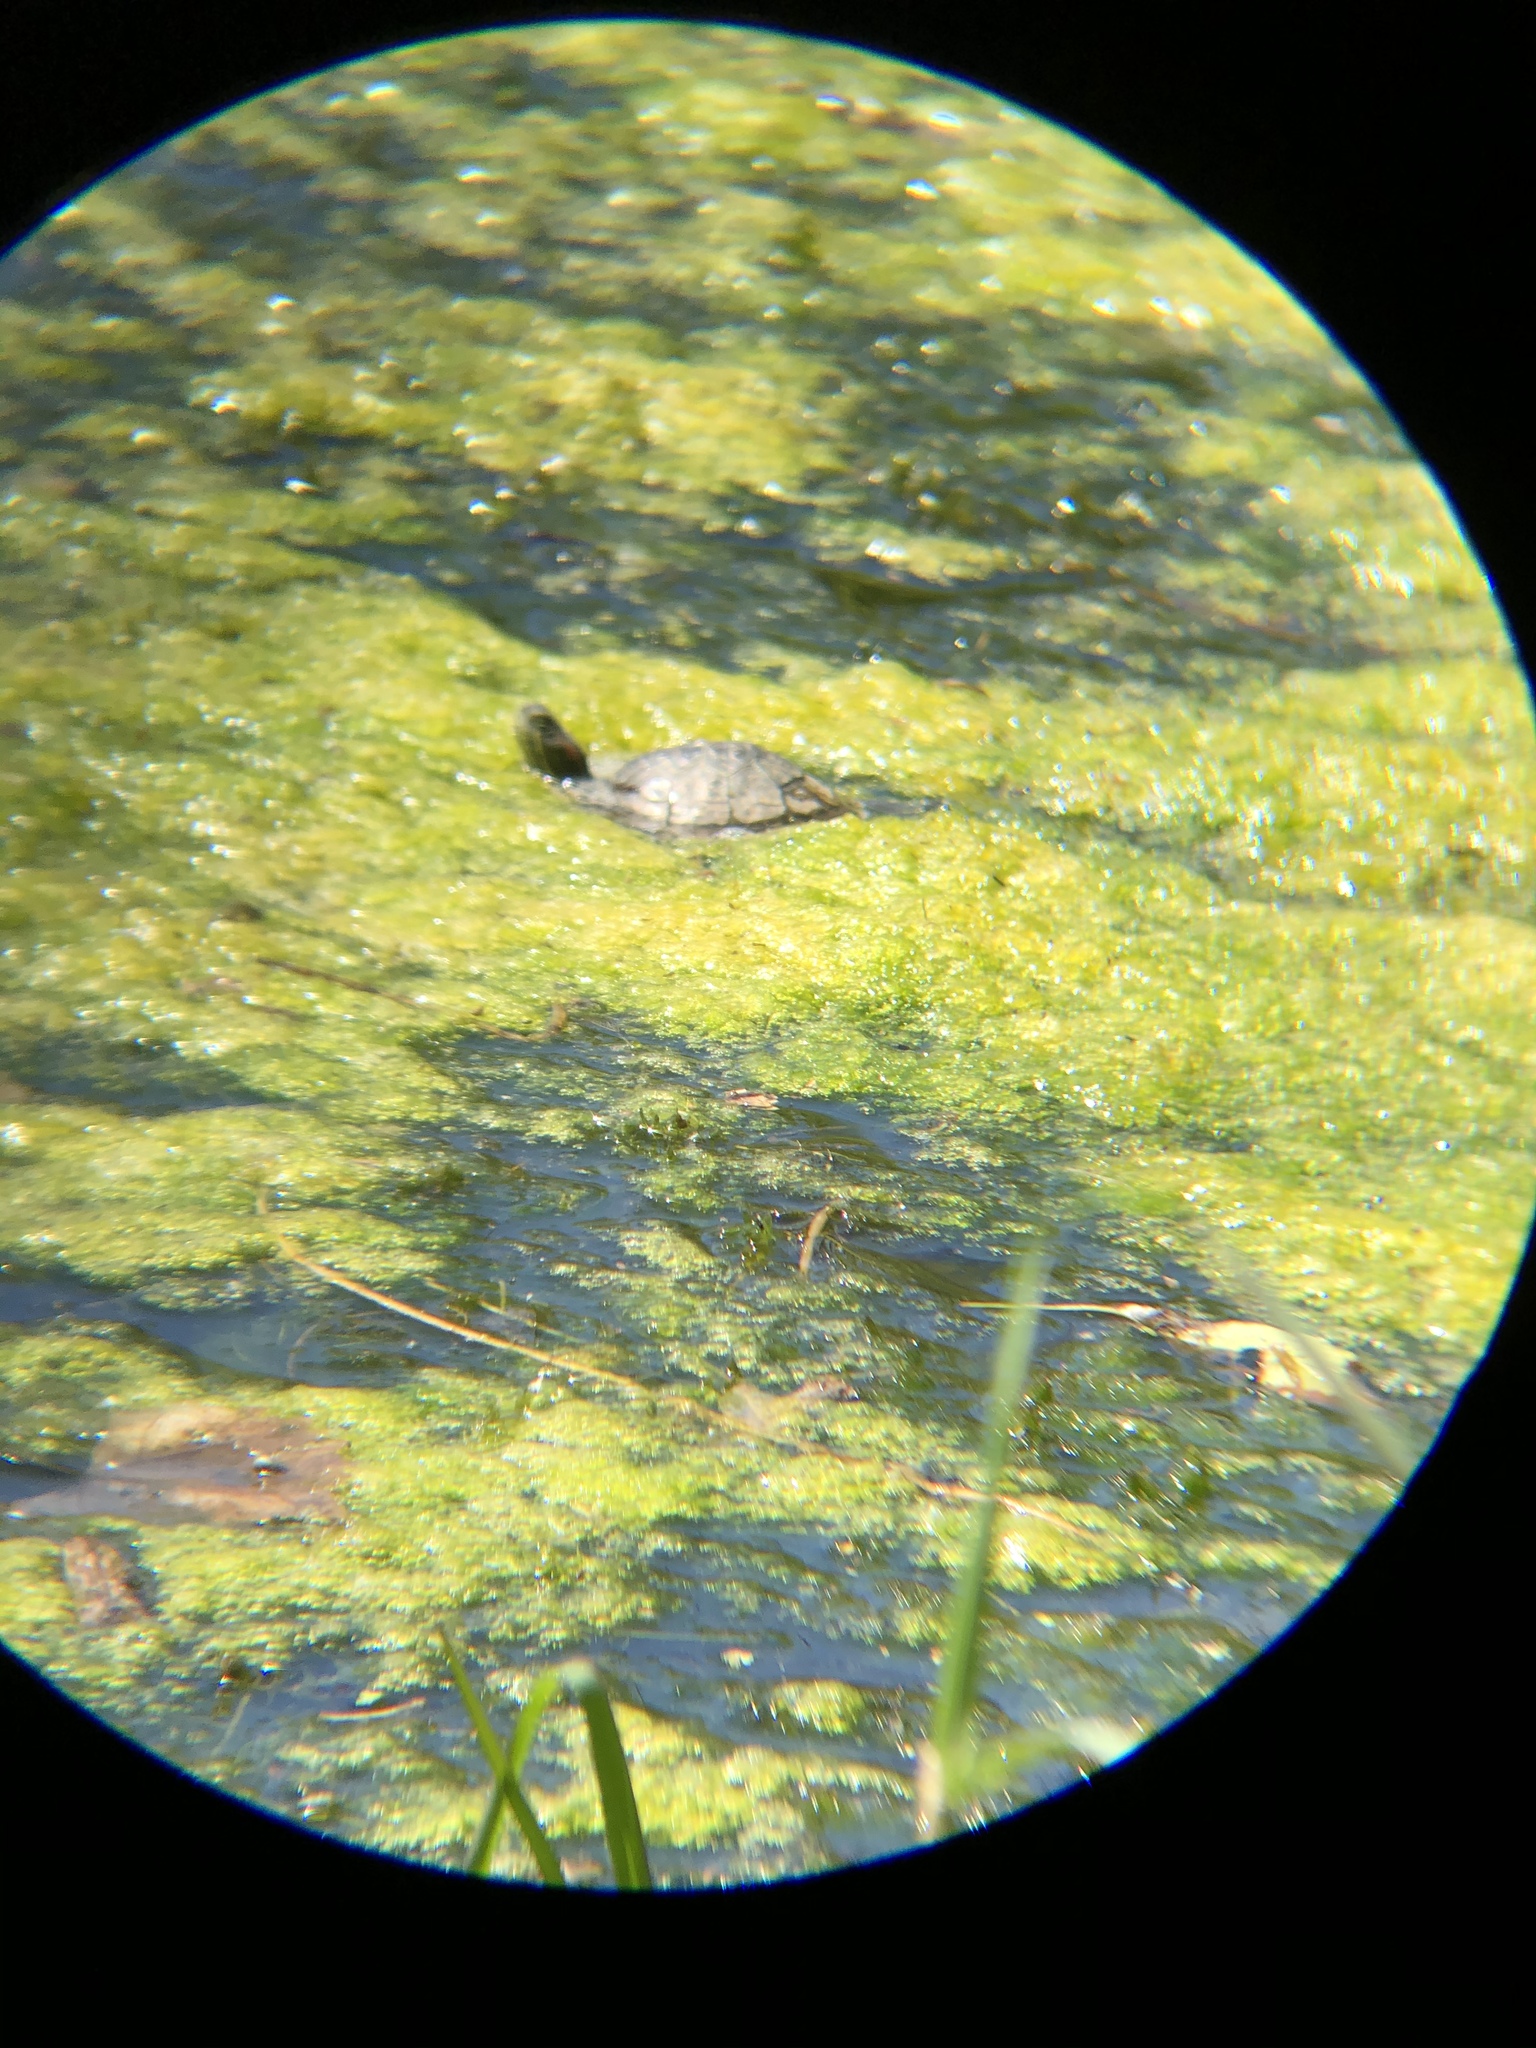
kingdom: Animalia
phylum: Chordata
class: Testudines
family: Emydidae
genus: Trachemys
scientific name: Trachemys scripta
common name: Slider
